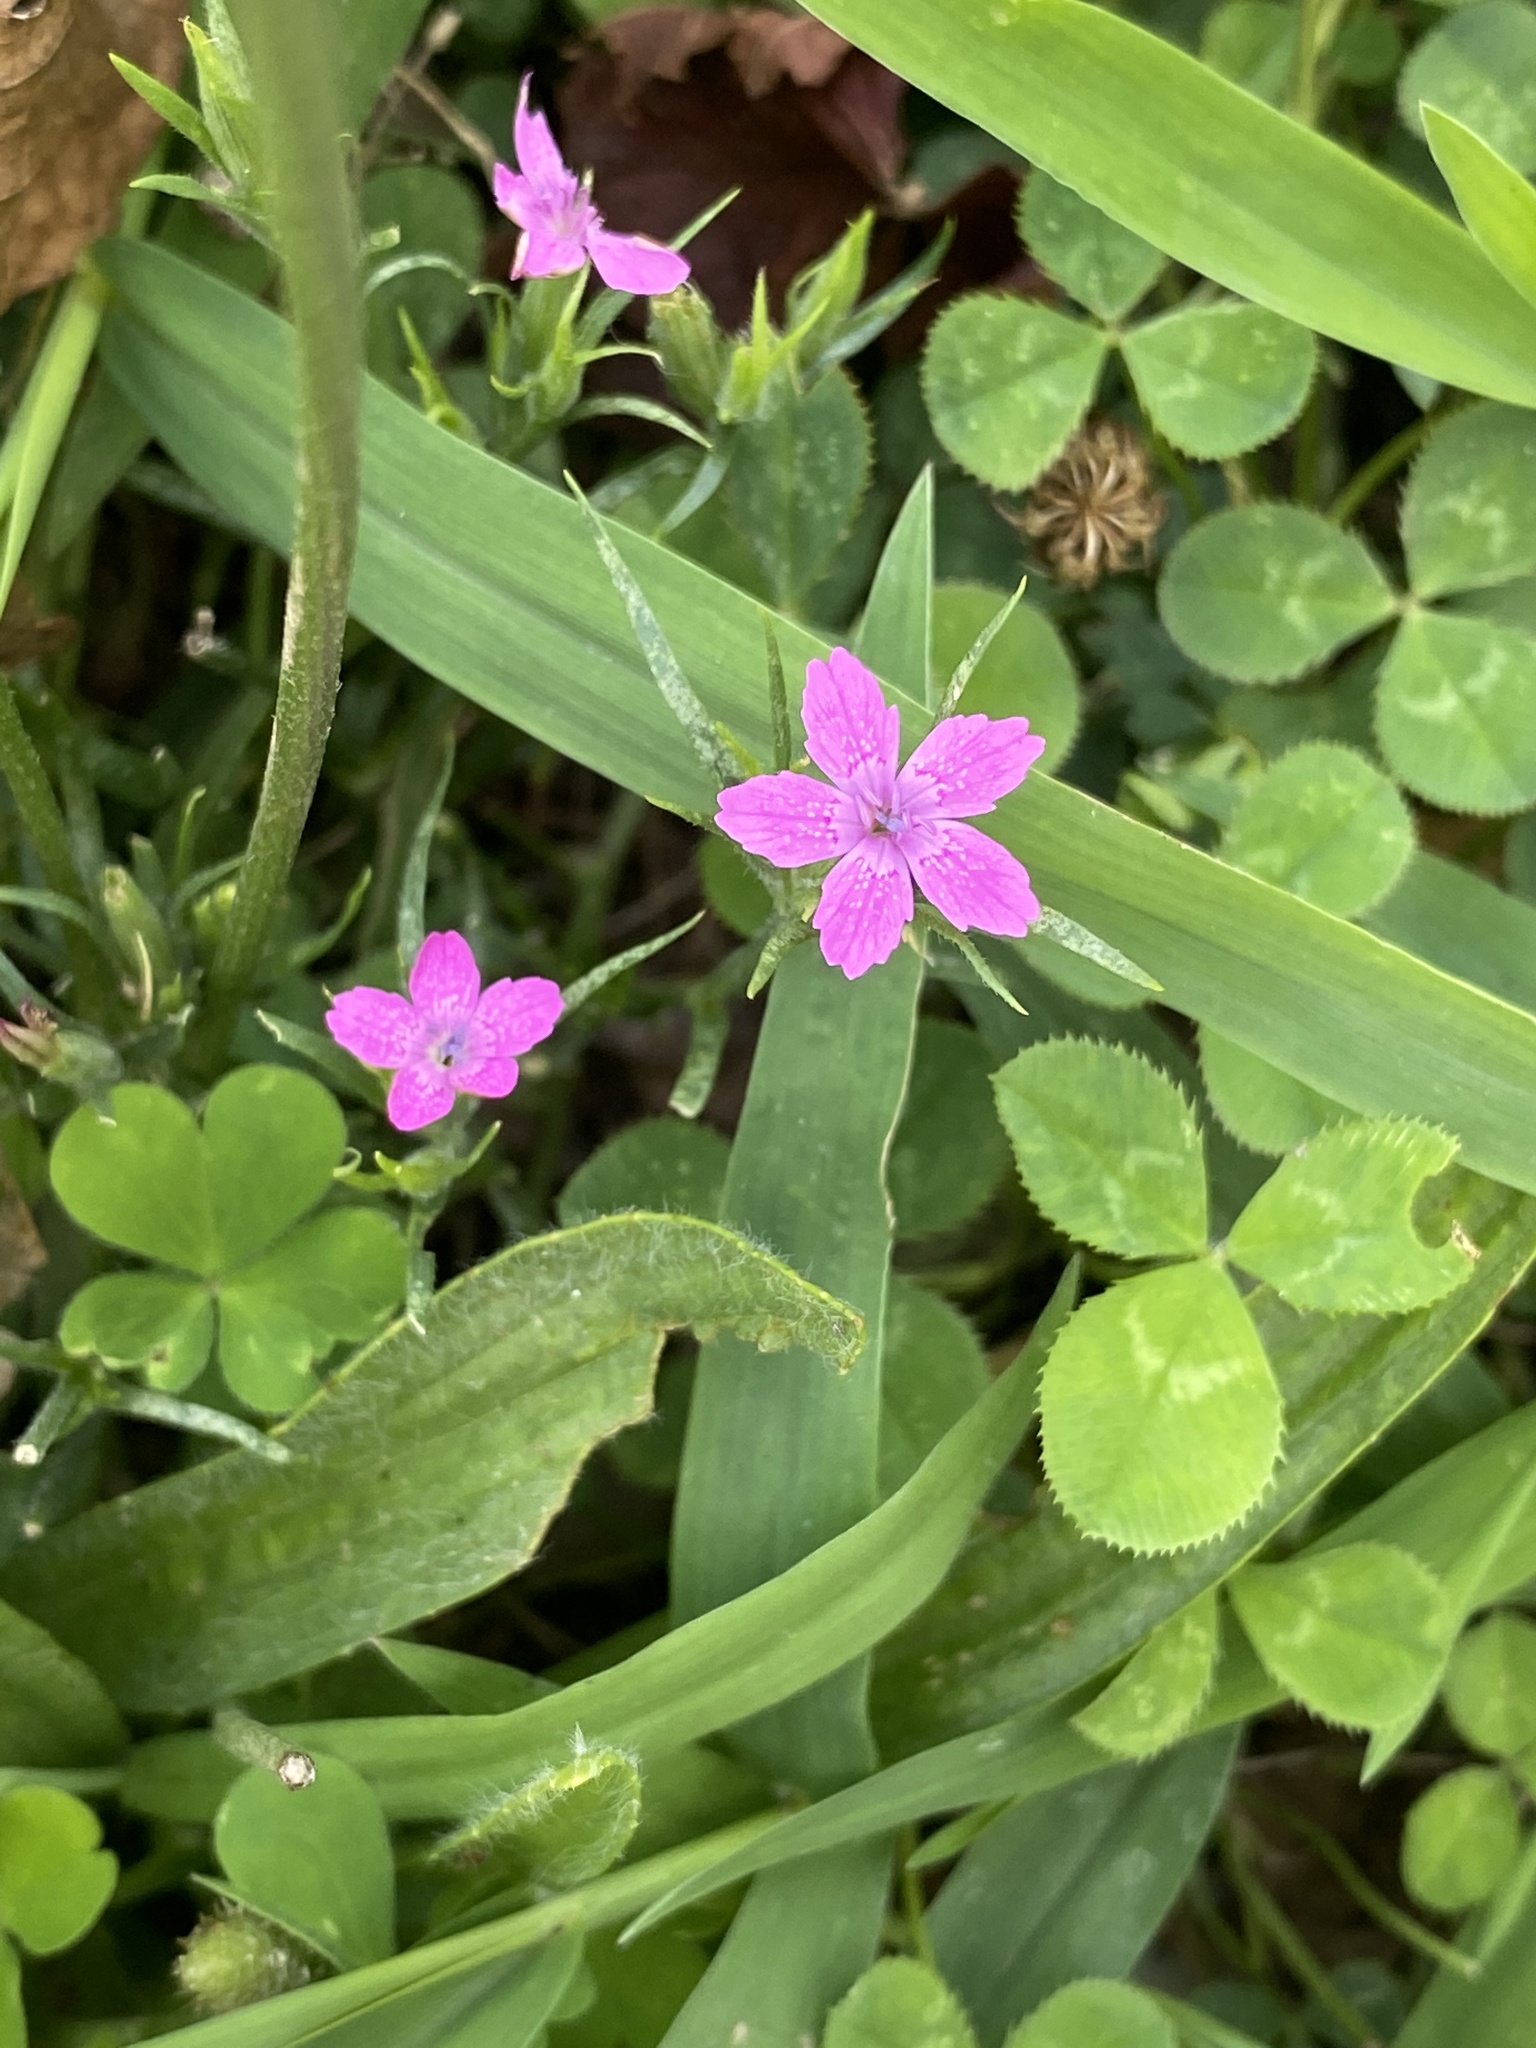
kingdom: Plantae
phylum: Tracheophyta
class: Magnoliopsida
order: Caryophyllales
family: Caryophyllaceae
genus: Dianthus
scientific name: Dianthus armeria
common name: Deptford pink
